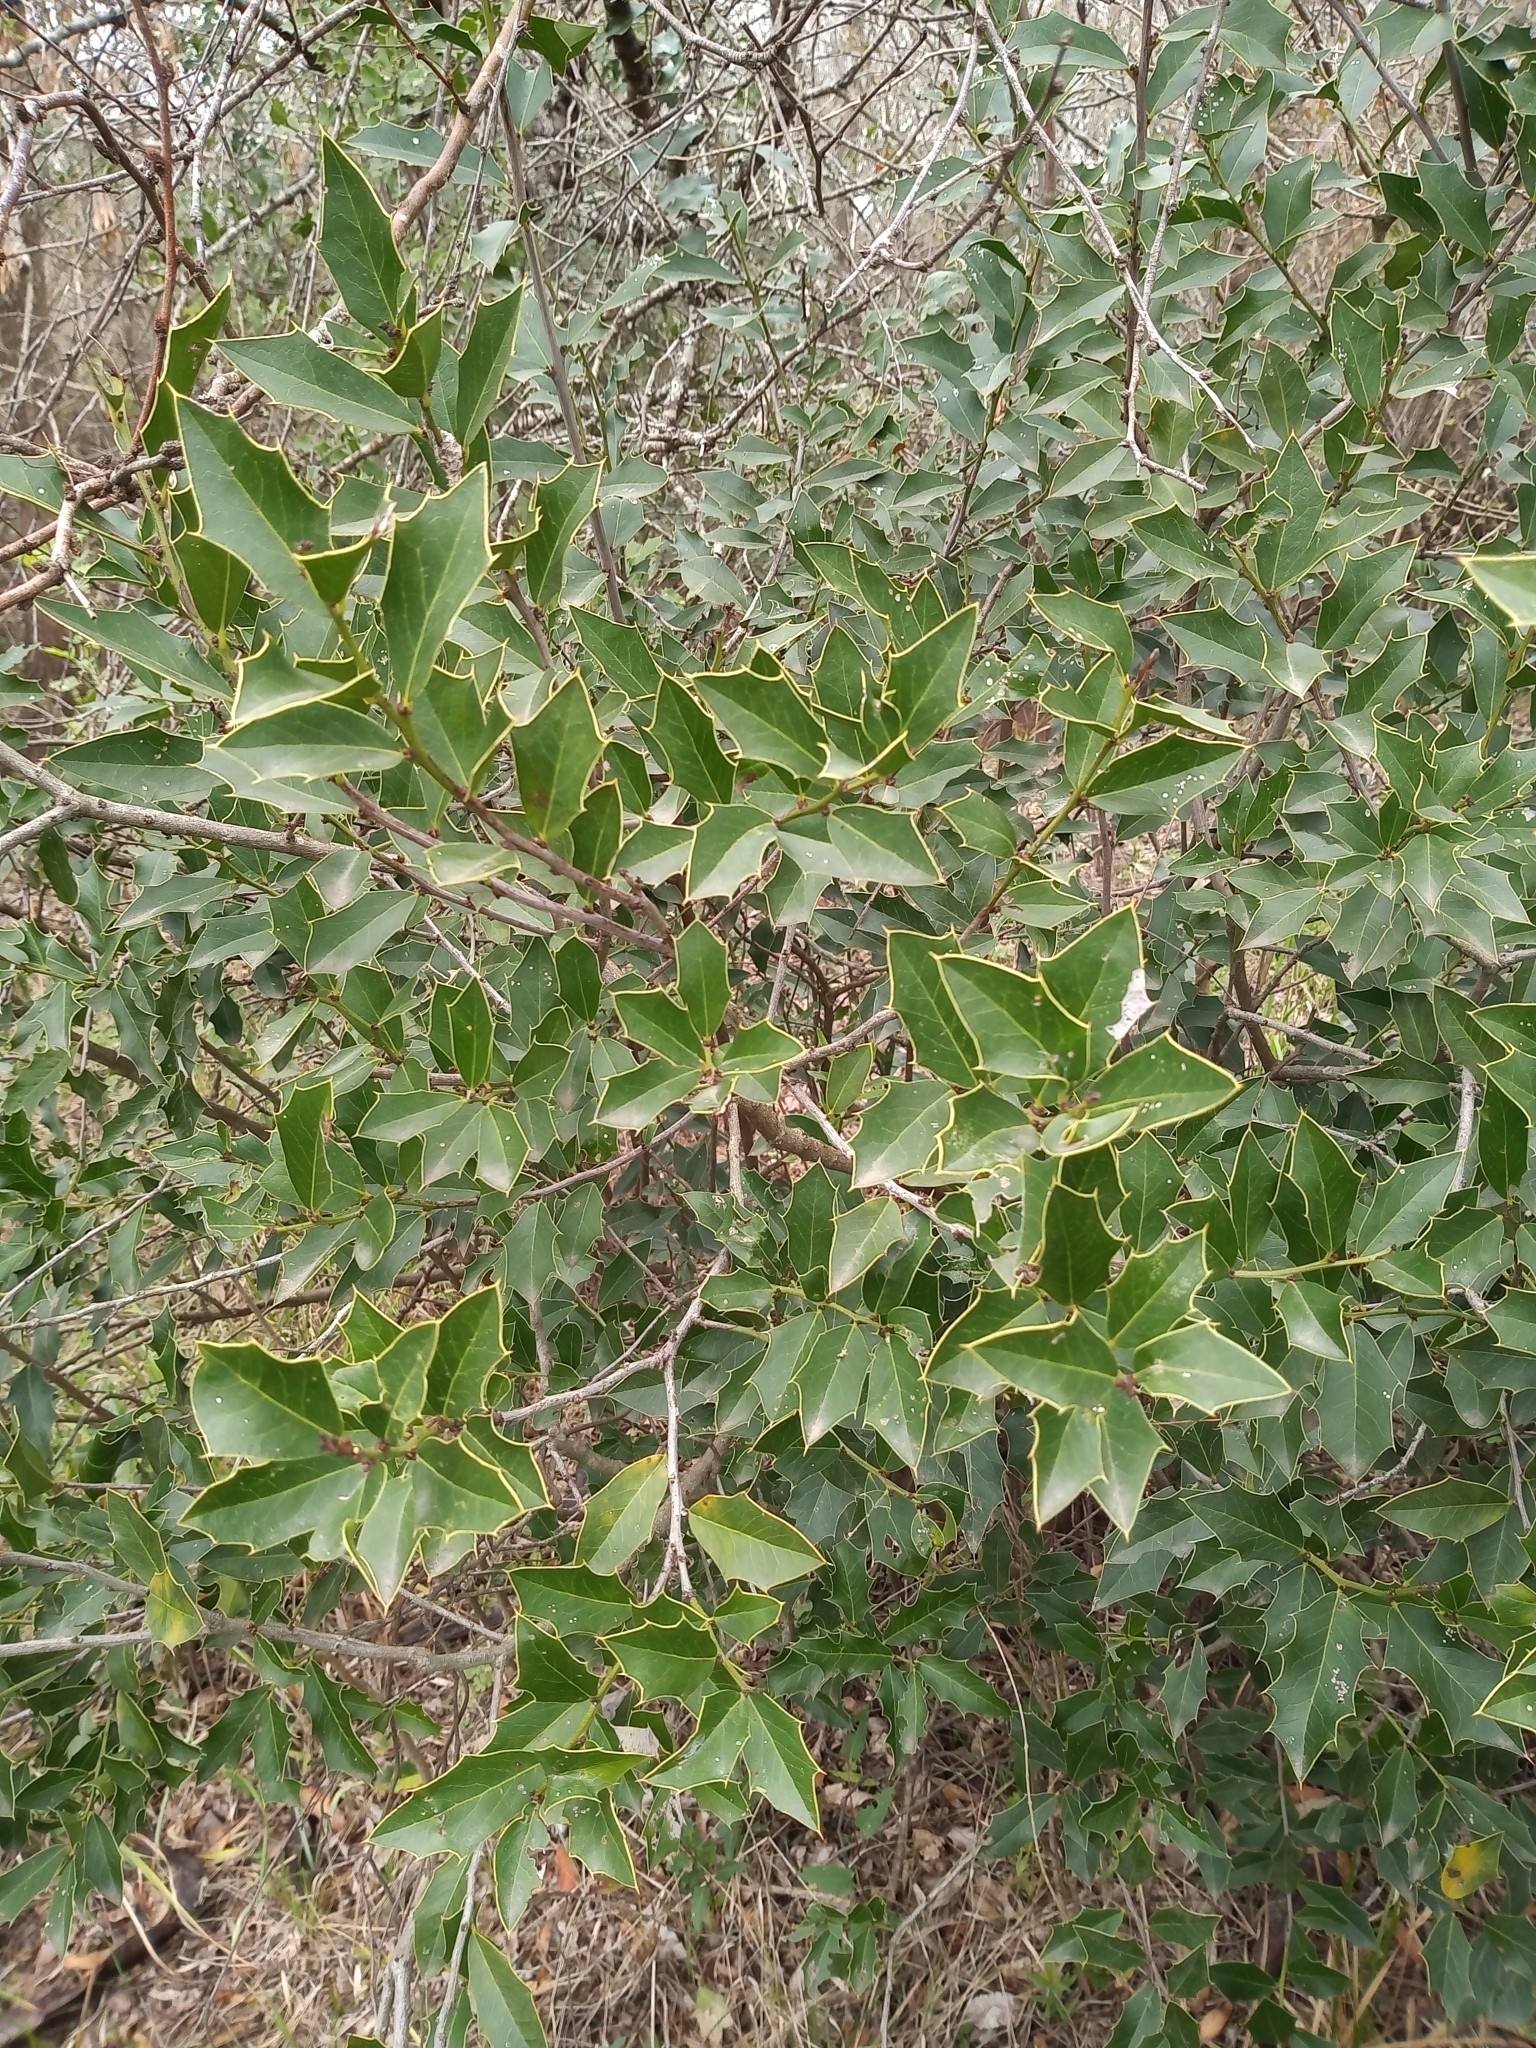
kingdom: Plantae
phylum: Tracheophyta
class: Magnoliopsida
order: Celastrales
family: Celastraceae
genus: Monteverdia
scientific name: Monteverdia
